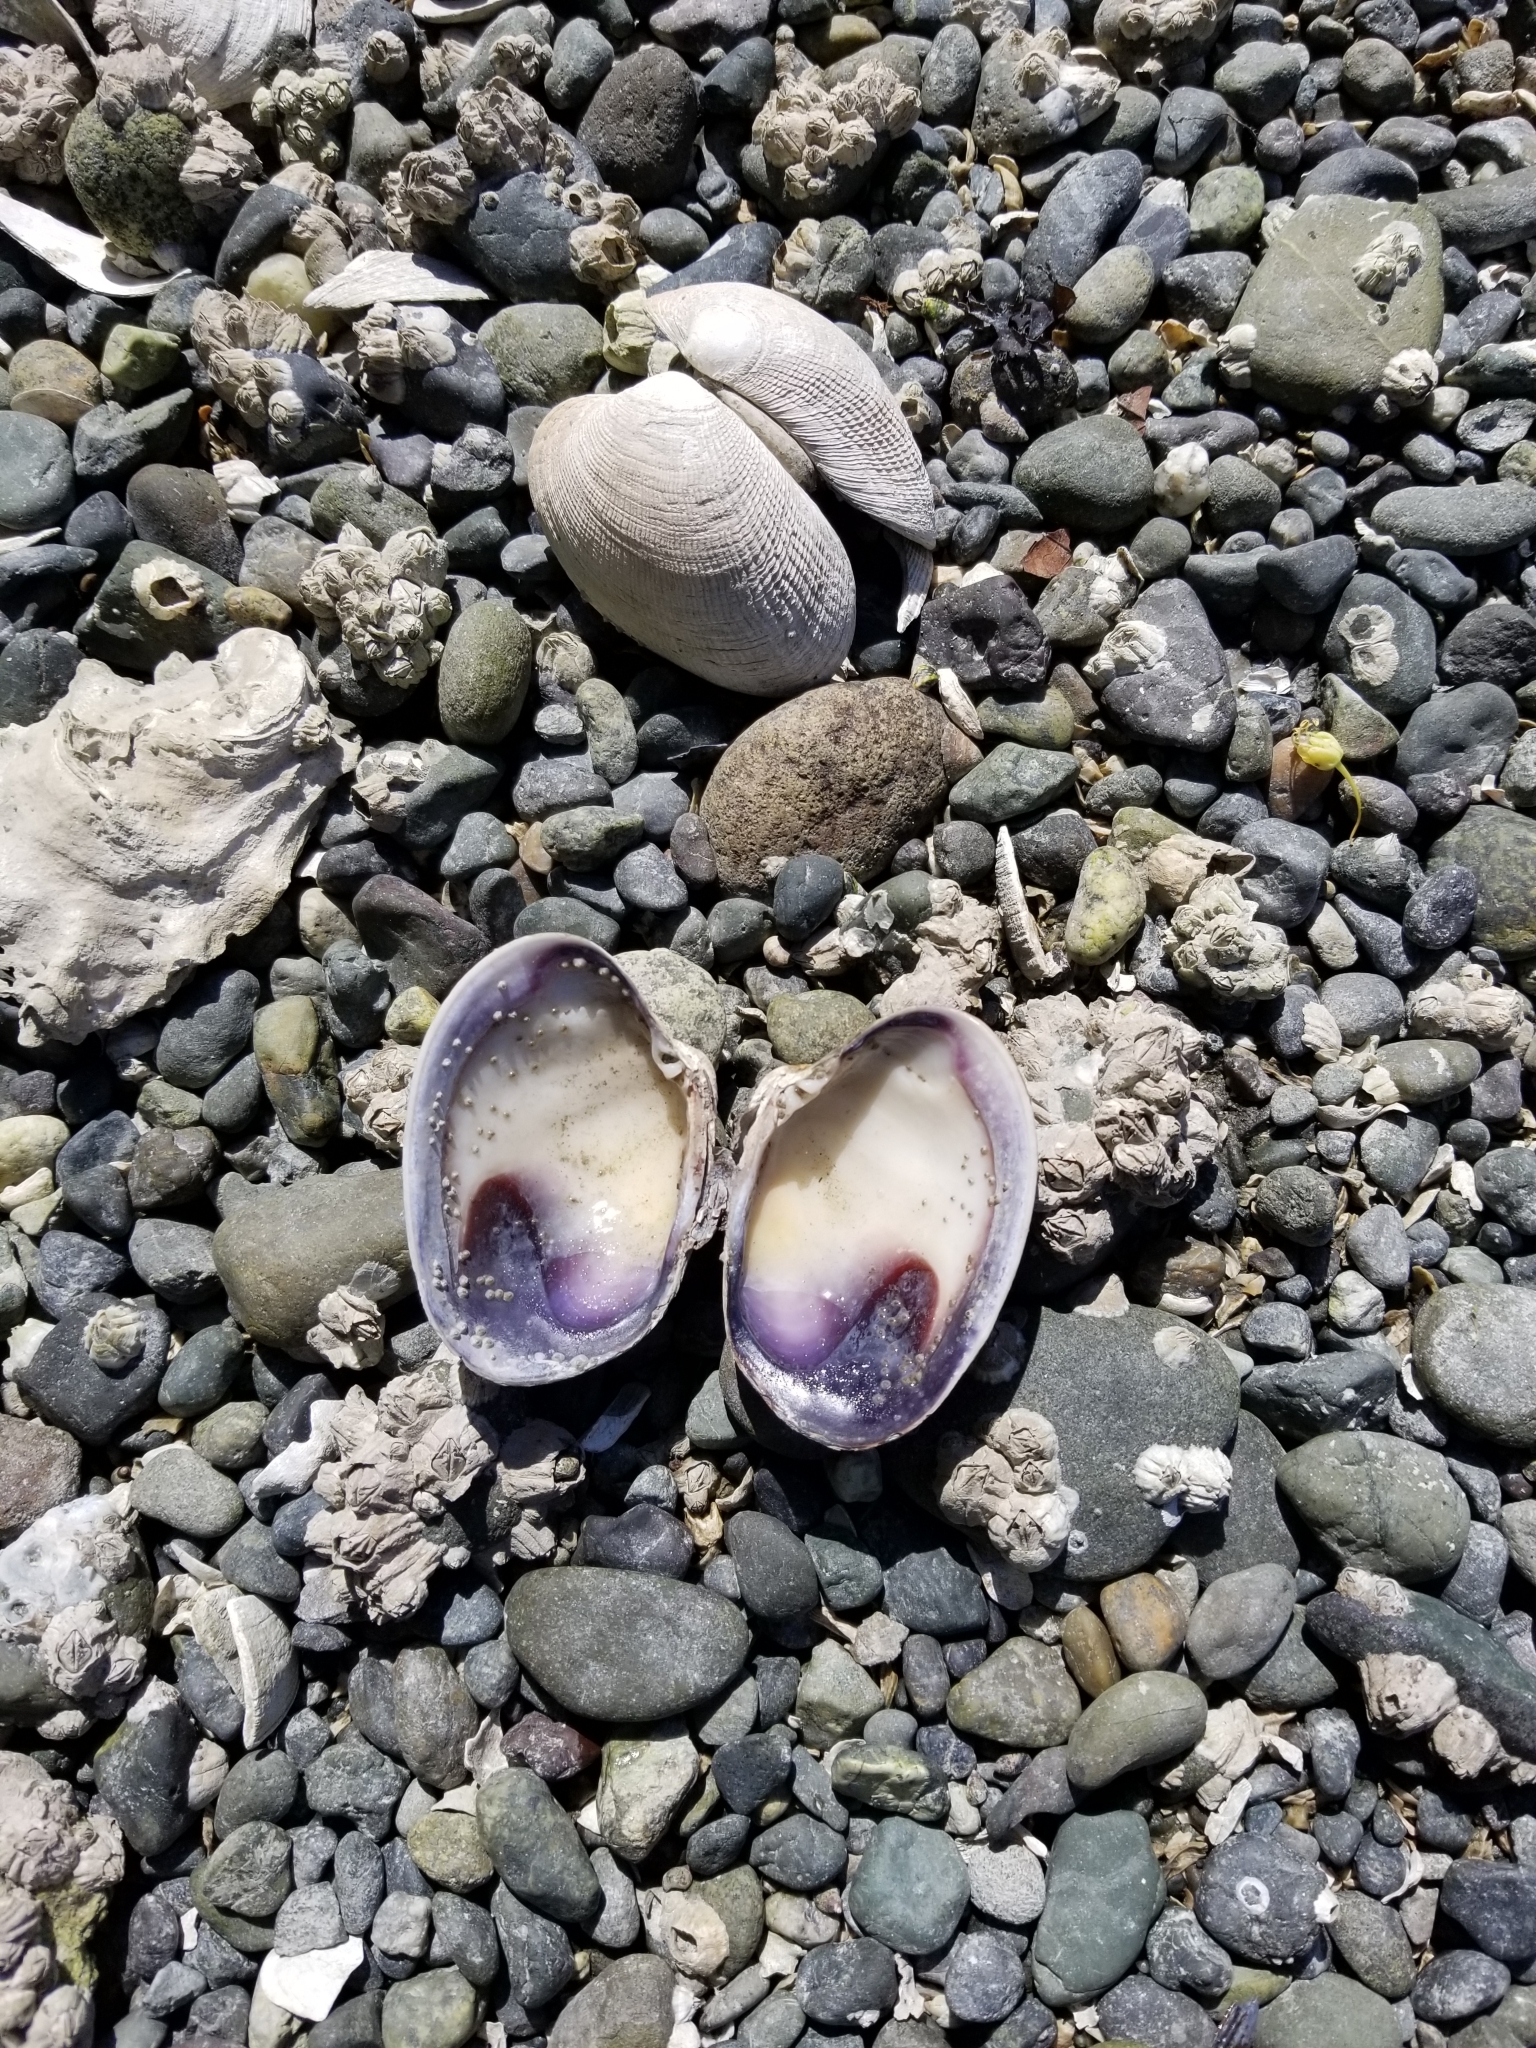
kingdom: Animalia
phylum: Mollusca
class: Bivalvia
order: Venerida
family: Veneridae
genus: Ruditapes
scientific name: Ruditapes philippinarum
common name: Manila clam
